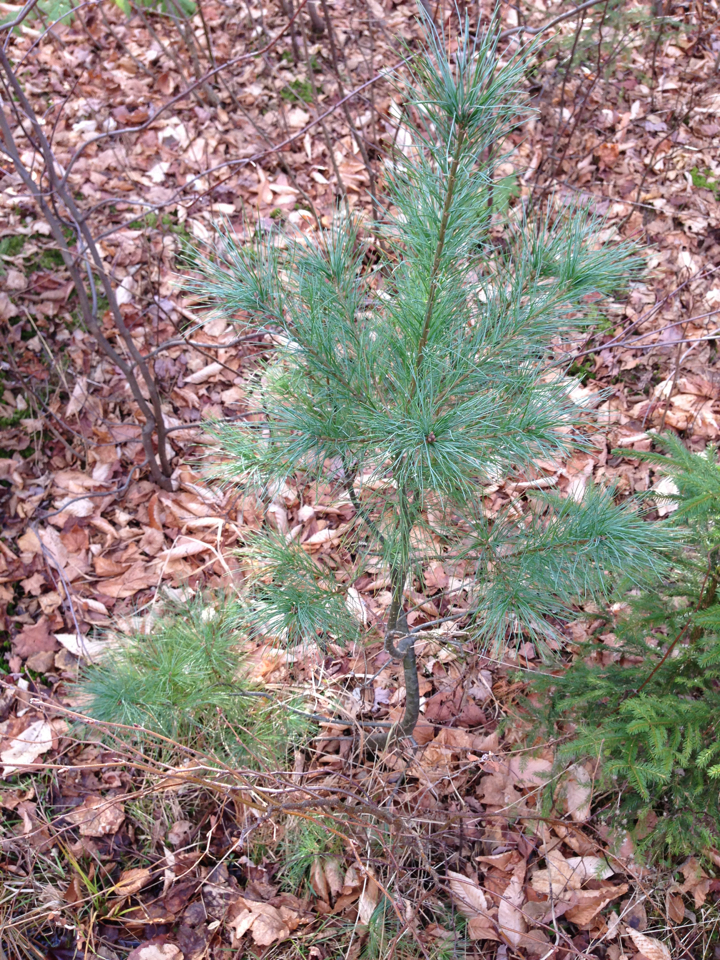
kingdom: Plantae
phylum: Tracheophyta
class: Pinopsida
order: Pinales
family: Pinaceae
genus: Pinus
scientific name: Pinus strobus
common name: Weymouth pine
